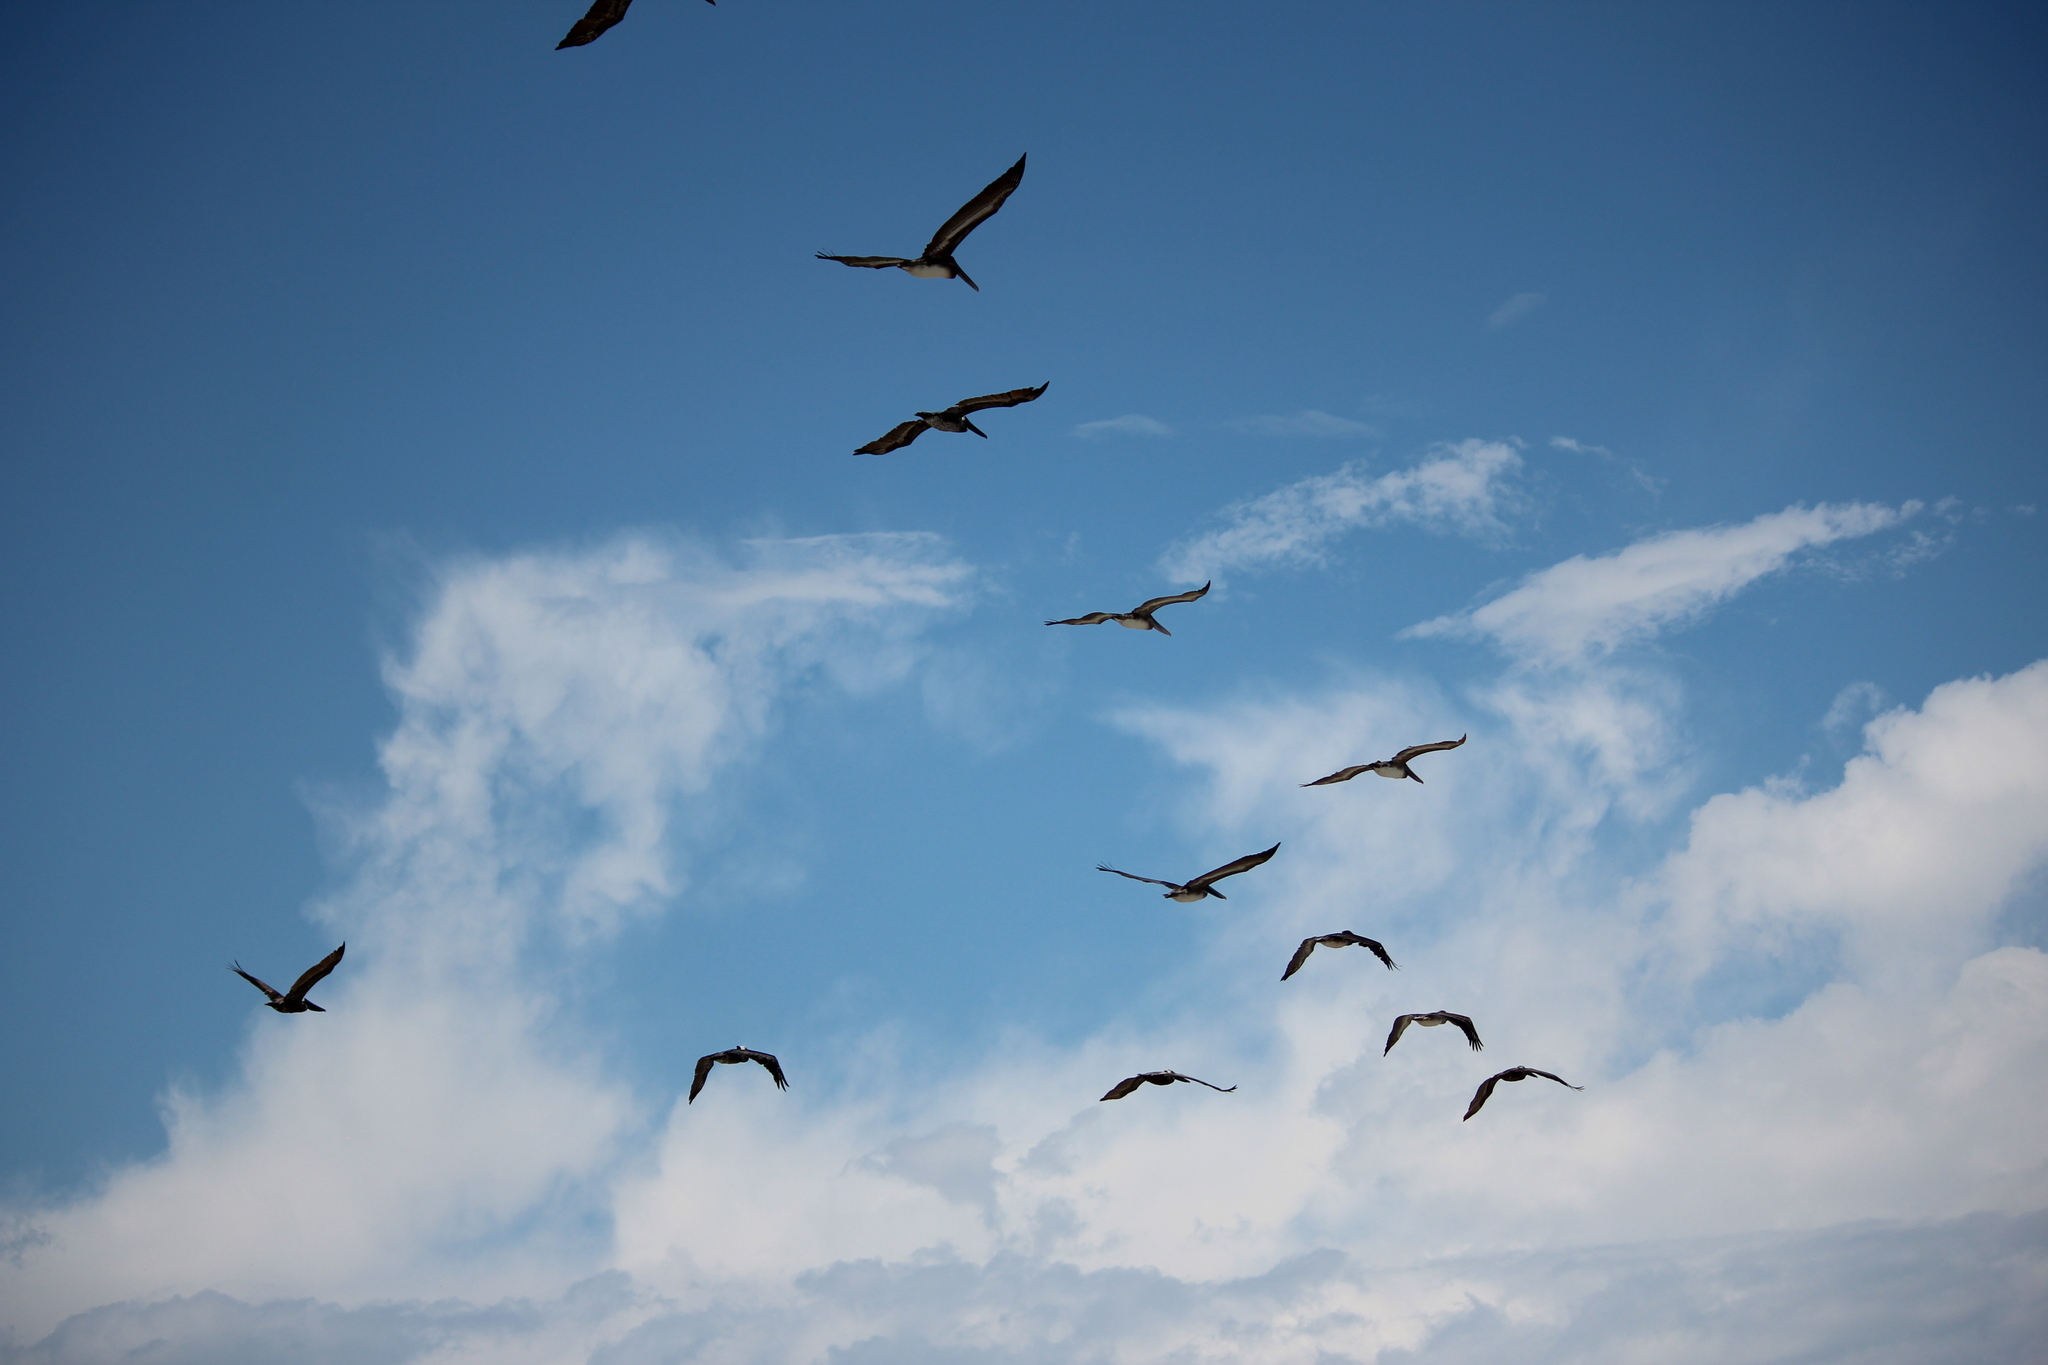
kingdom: Animalia
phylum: Chordata
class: Aves
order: Pelecaniformes
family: Pelecanidae
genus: Pelecanus
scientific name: Pelecanus occidentalis
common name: Brown pelican
